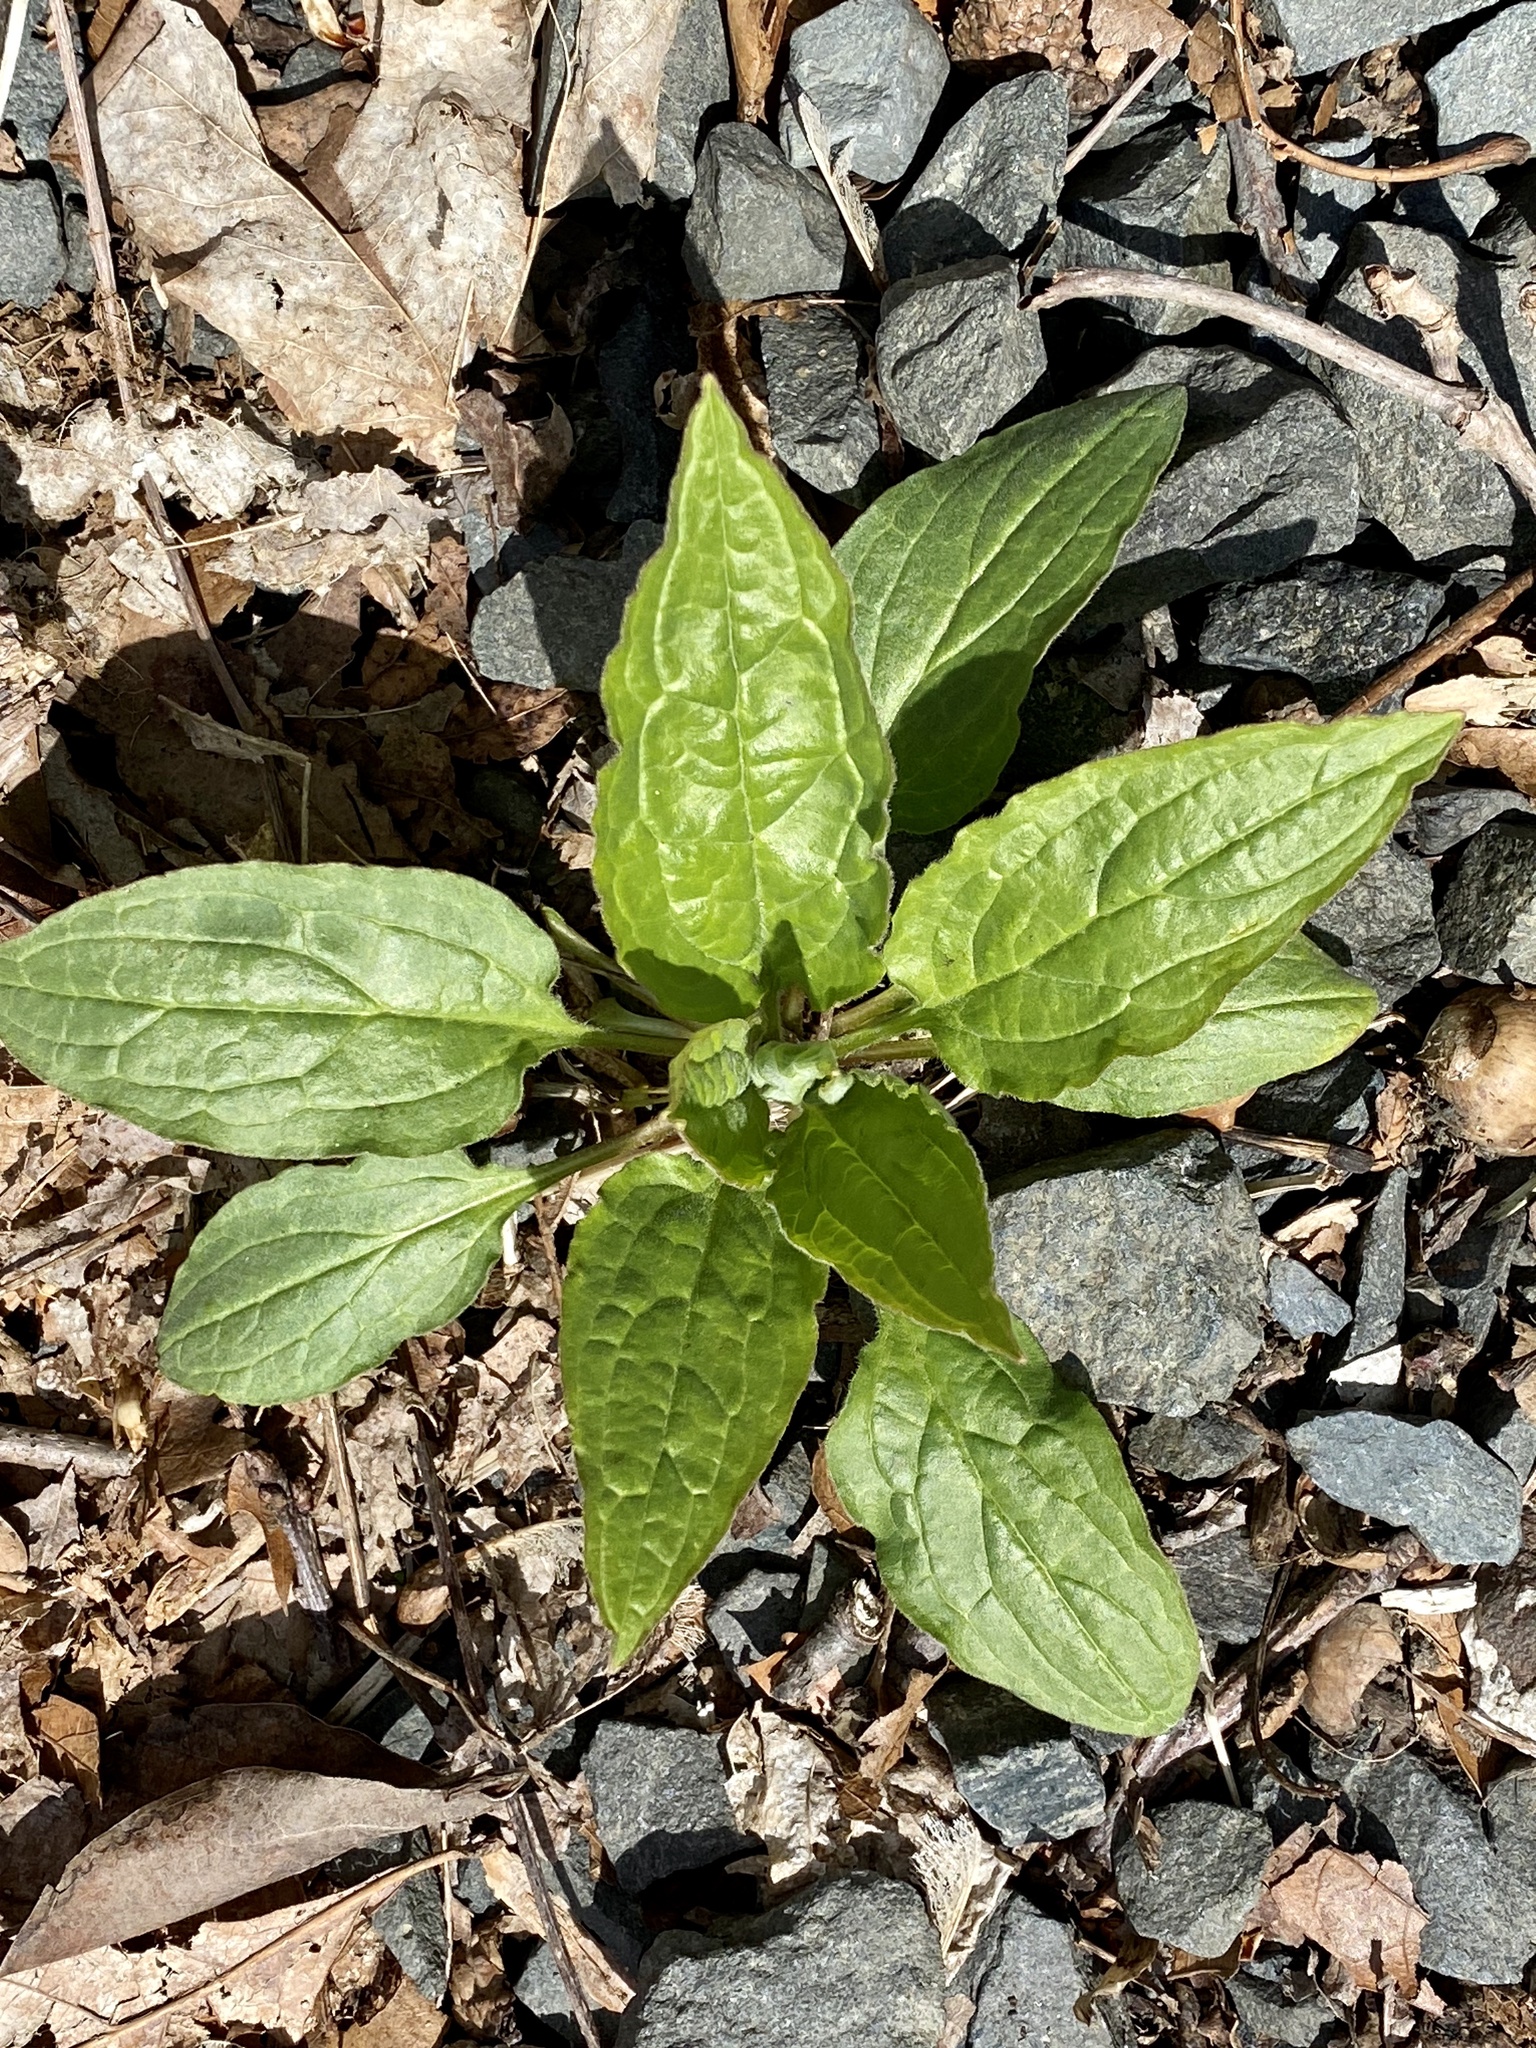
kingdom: Plantae
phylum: Tracheophyta
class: Magnoliopsida
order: Boraginales
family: Boraginaceae
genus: Hackelia
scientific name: Hackelia virginiana
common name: Beggar's-lice
